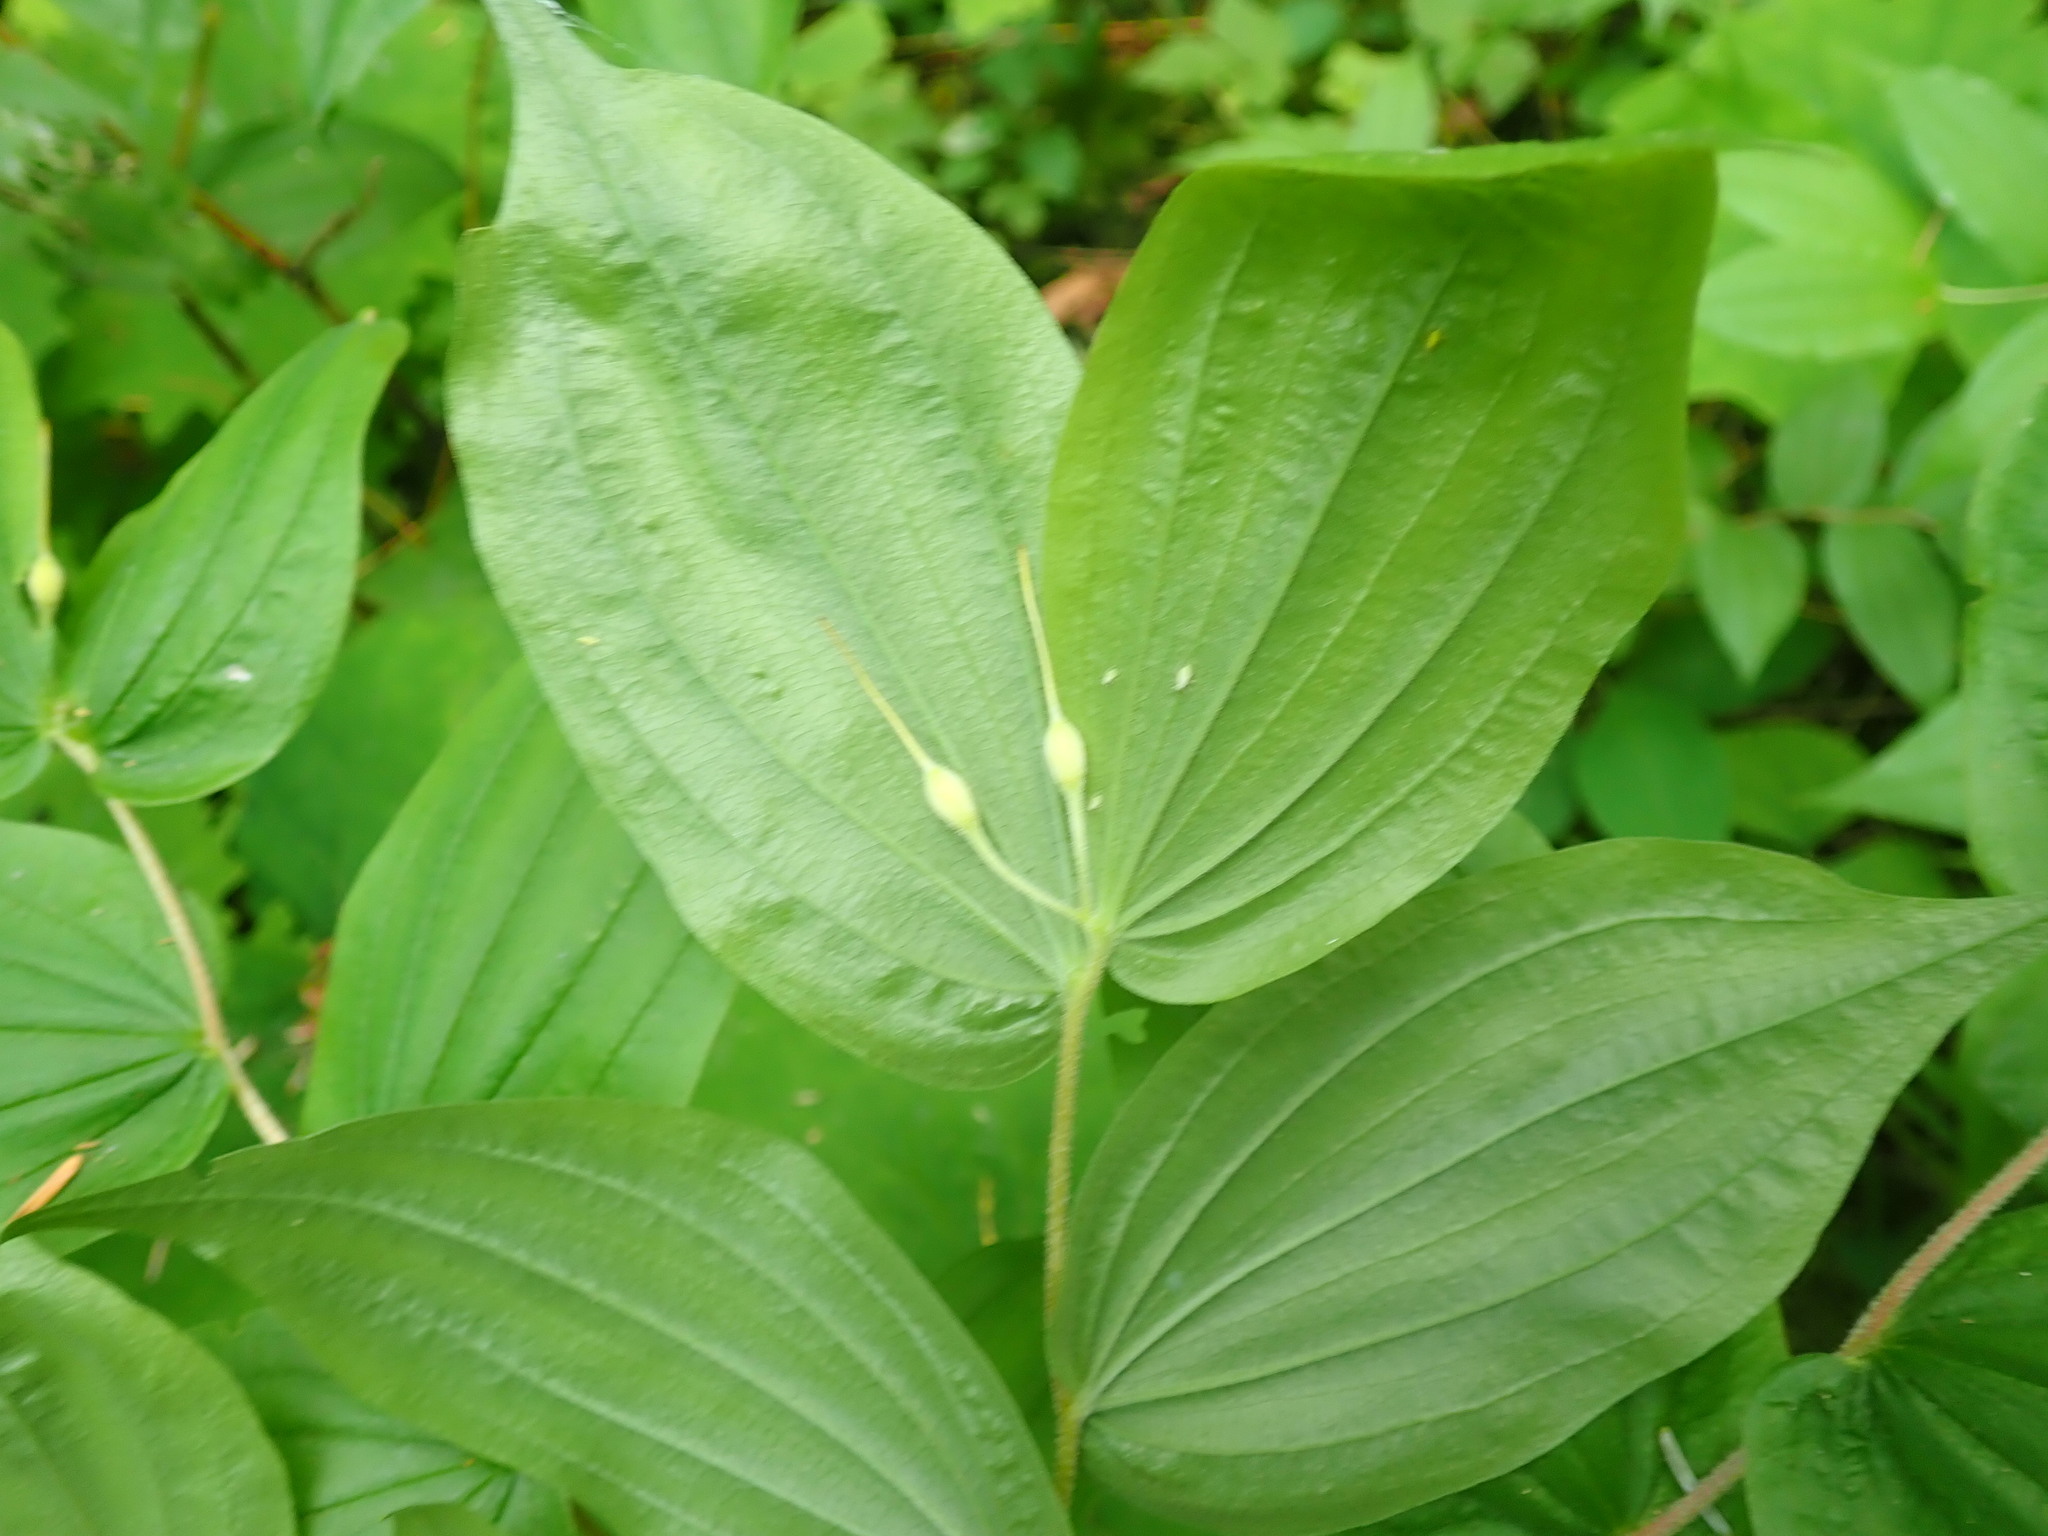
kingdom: Plantae
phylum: Tracheophyta
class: Liliopsida
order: Liliales
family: Liliaceae
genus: Prosartes
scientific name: Prosartes hookeri
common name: Fairy-bells
